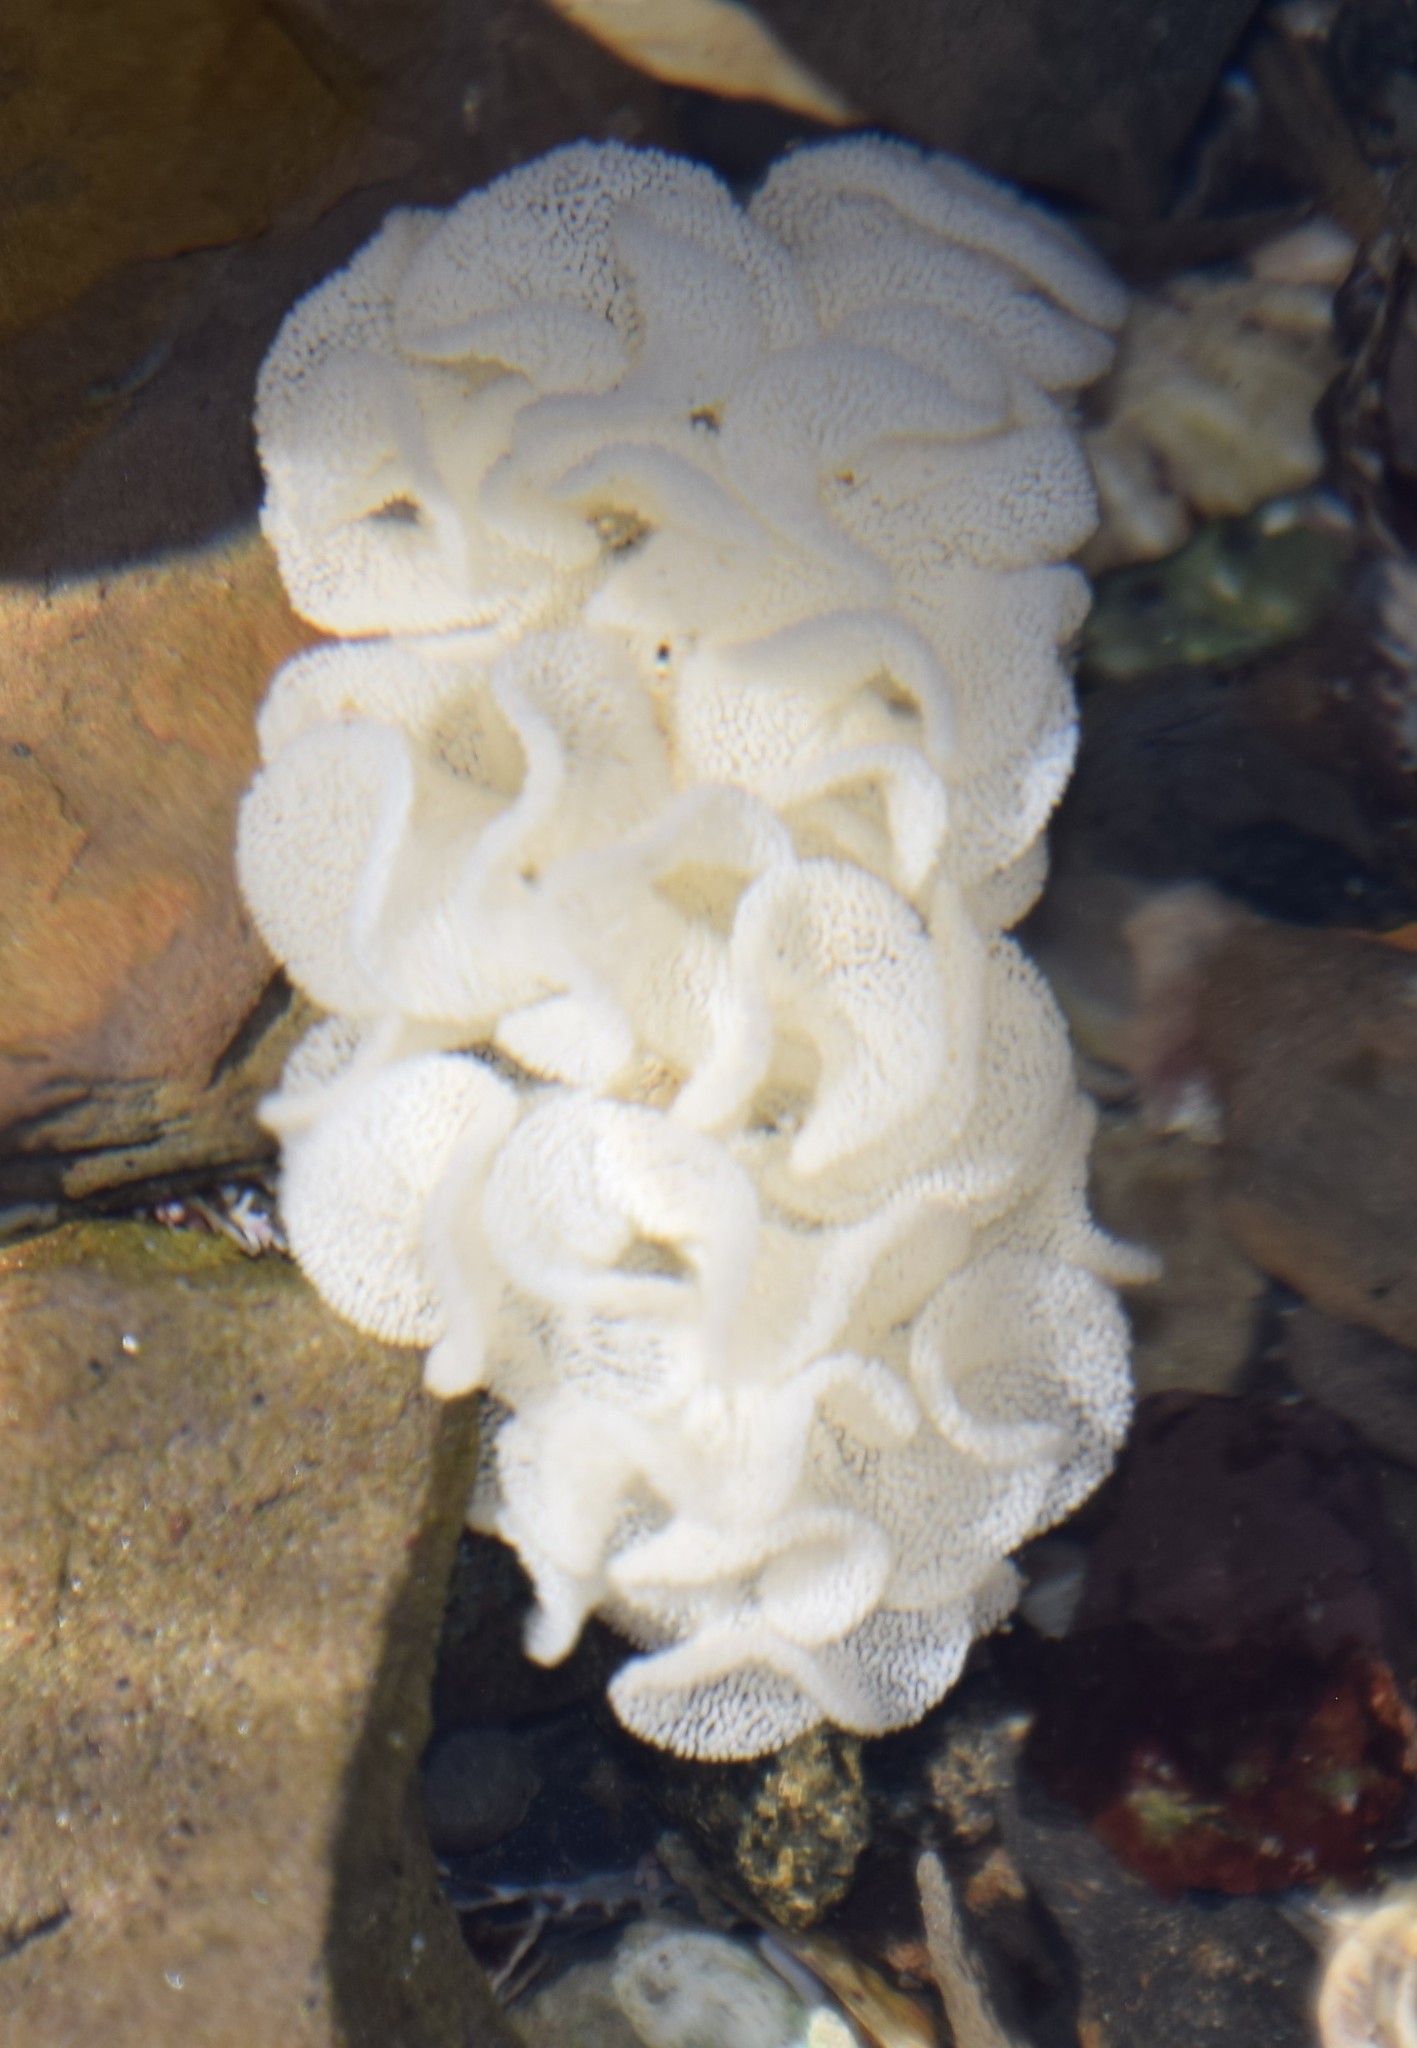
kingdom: Animalia
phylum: Mollusca
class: Gastropoda
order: Cephalaspidea
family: Aplustridae
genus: Hydatina
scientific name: Hydatina physis
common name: Brown-line paperbubble
